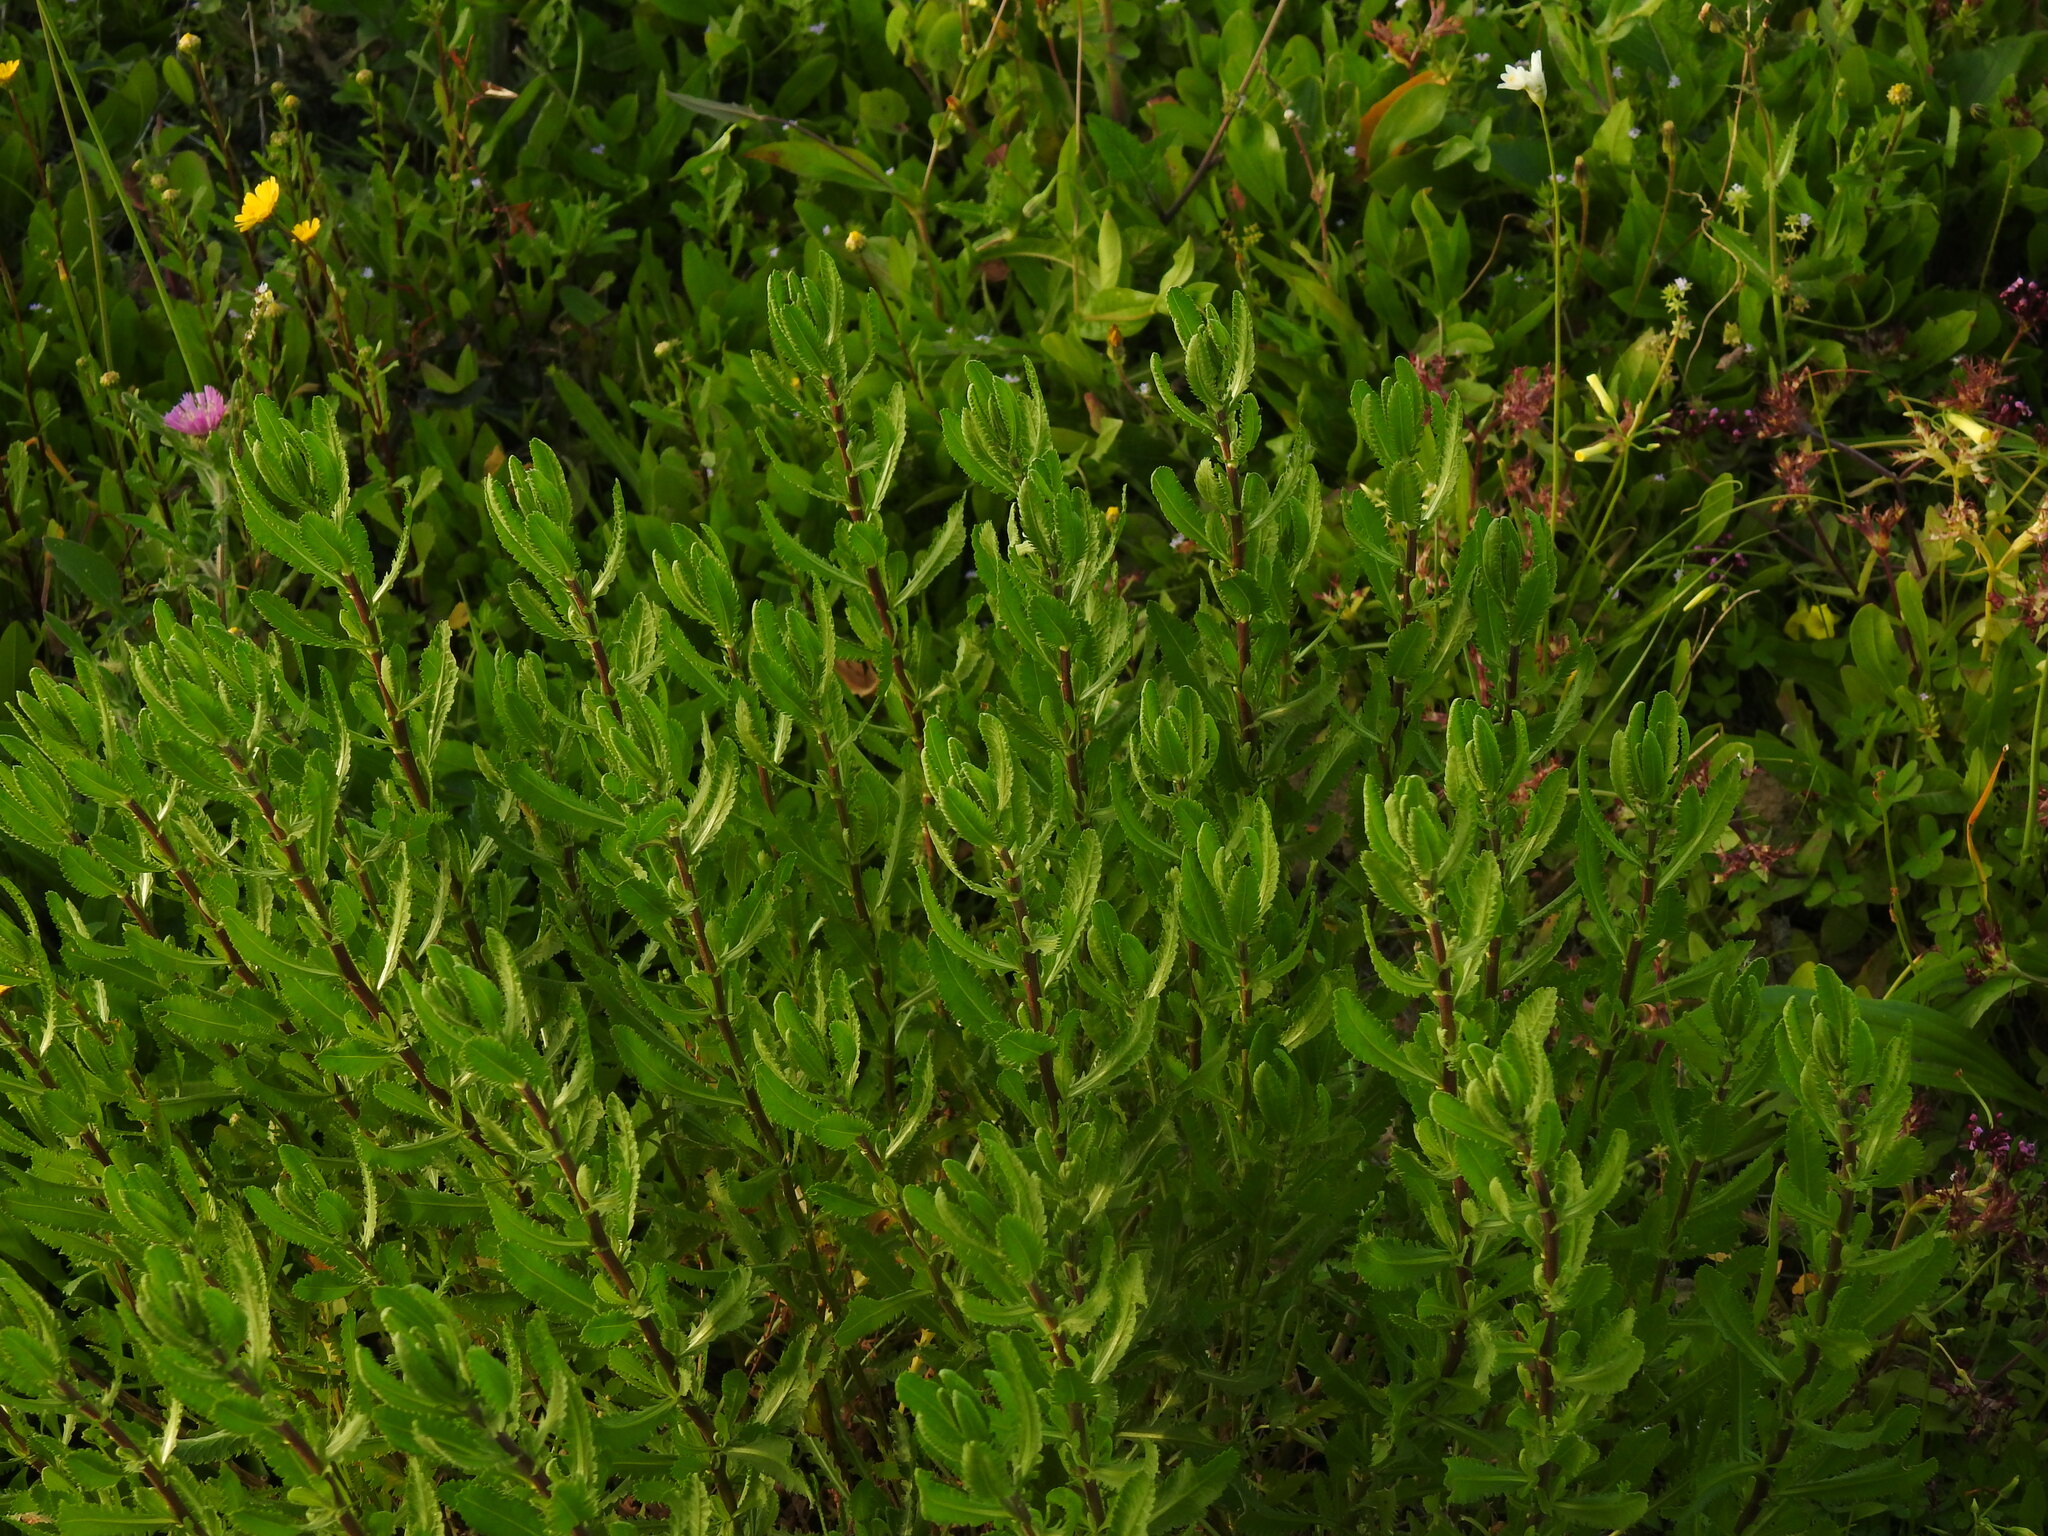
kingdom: Plantae
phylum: Tracheophyta
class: Magnoliopsida
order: Asterales
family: Asteraceae
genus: Achillea
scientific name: Achillea ageratum
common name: Sweet-nancy
